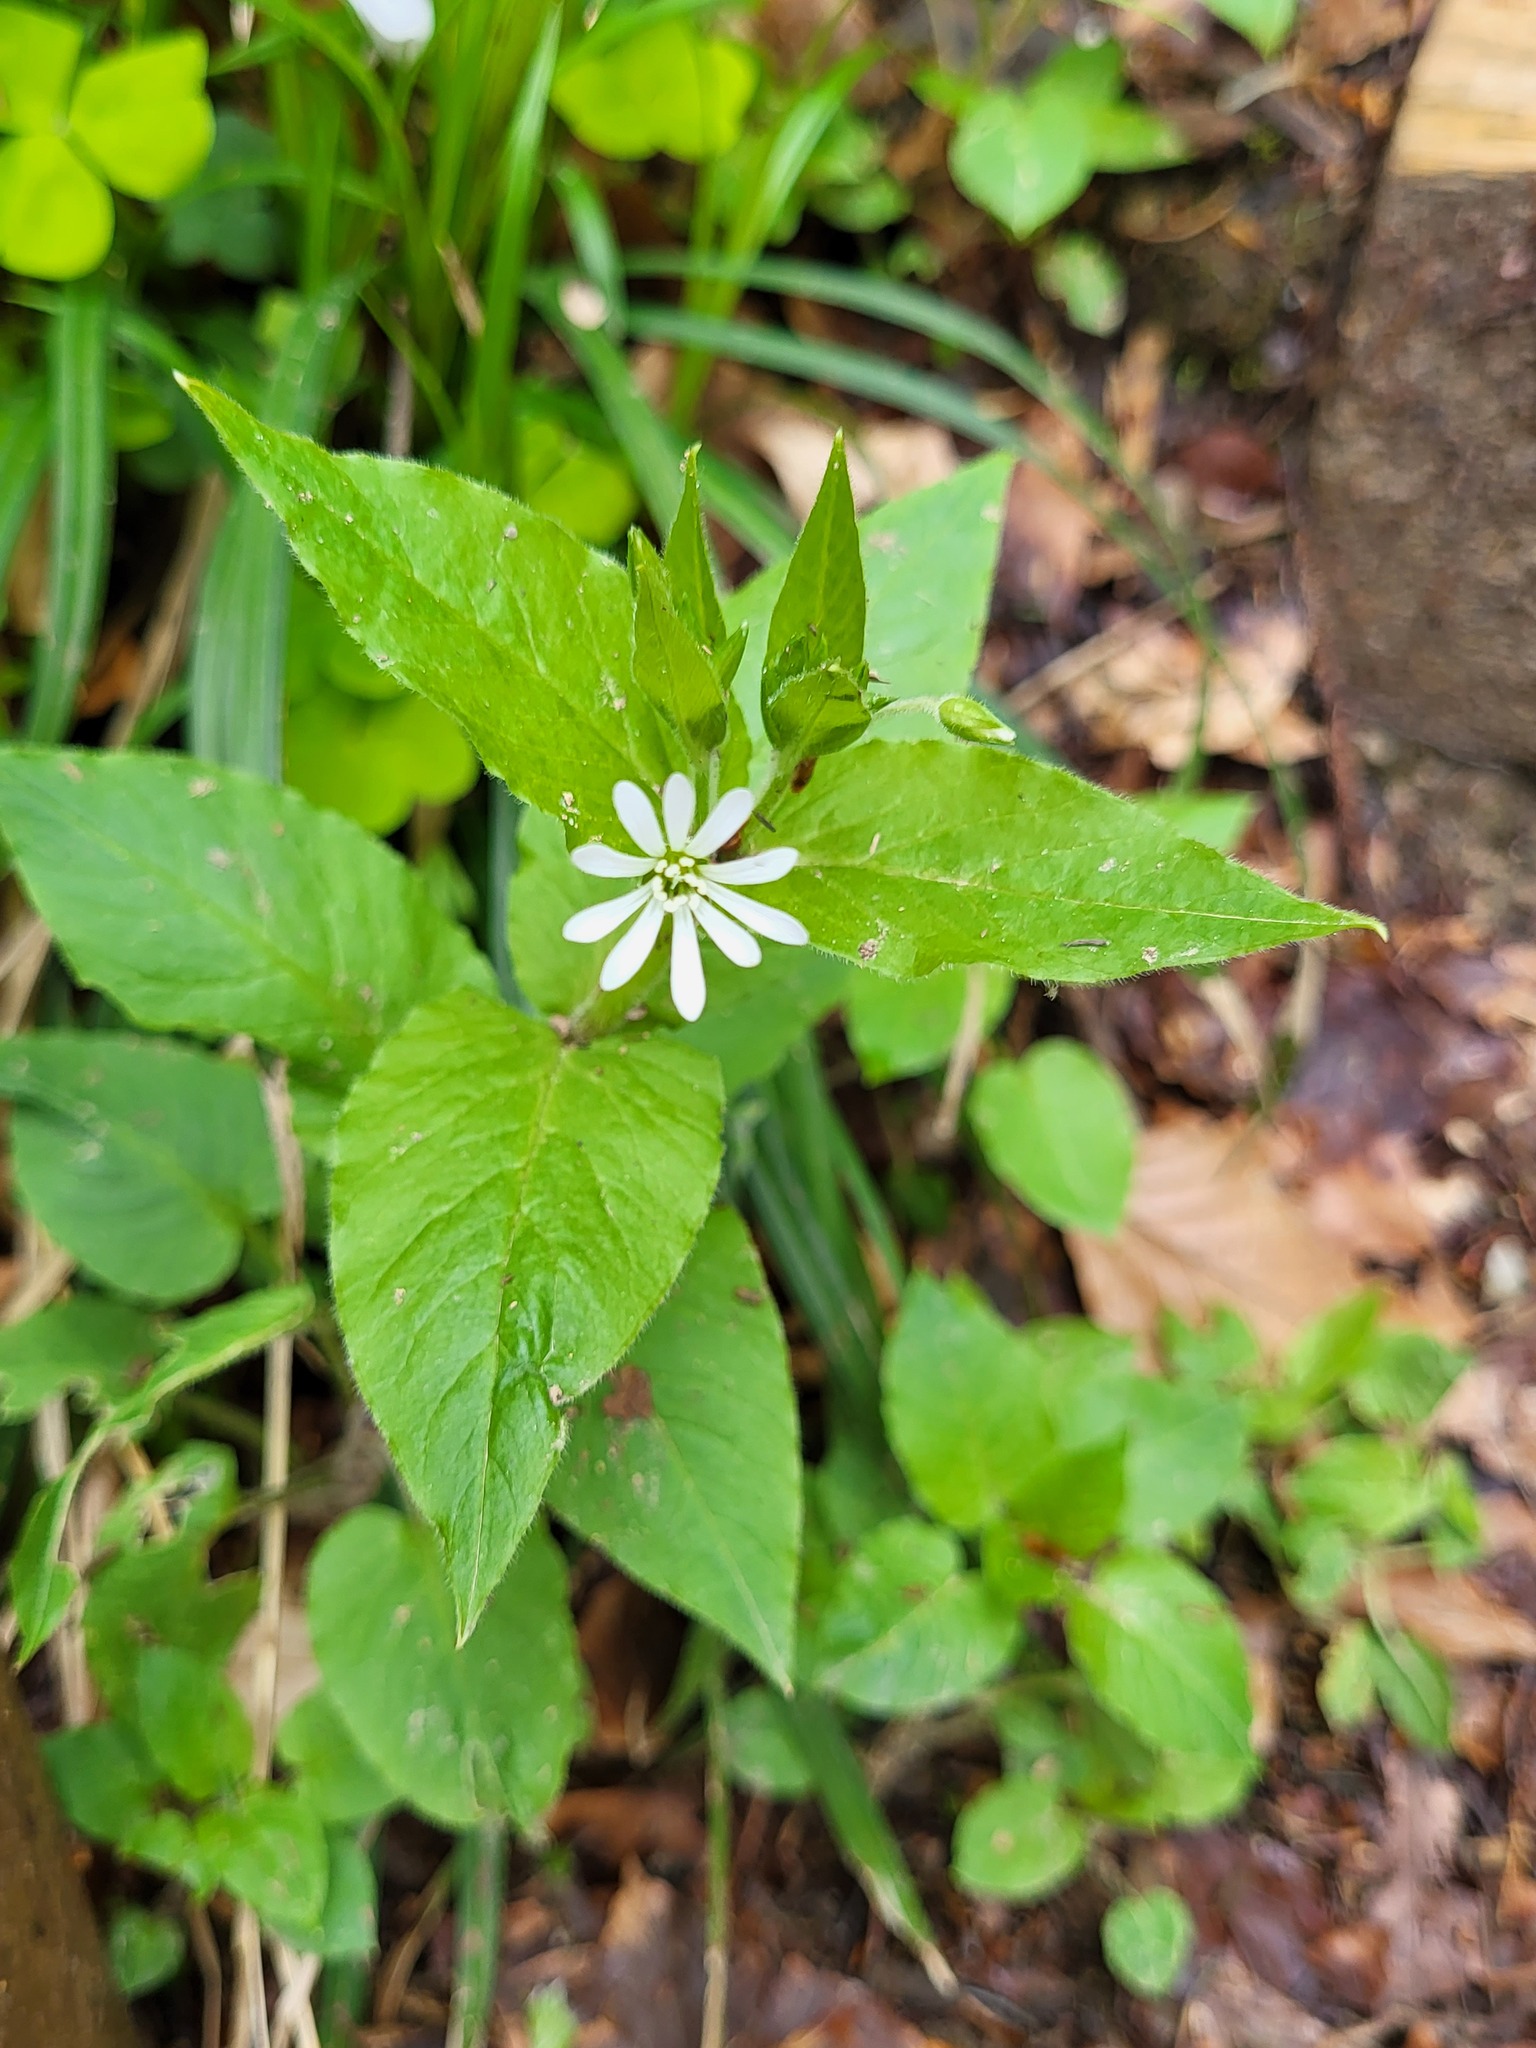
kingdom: Plantae
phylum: Tracheophyta
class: Magnoliopsida
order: Caryophyllales
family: Caryophyllaceae
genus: Stellaria
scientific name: Stellaria nemorum
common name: Wood stitchwort
